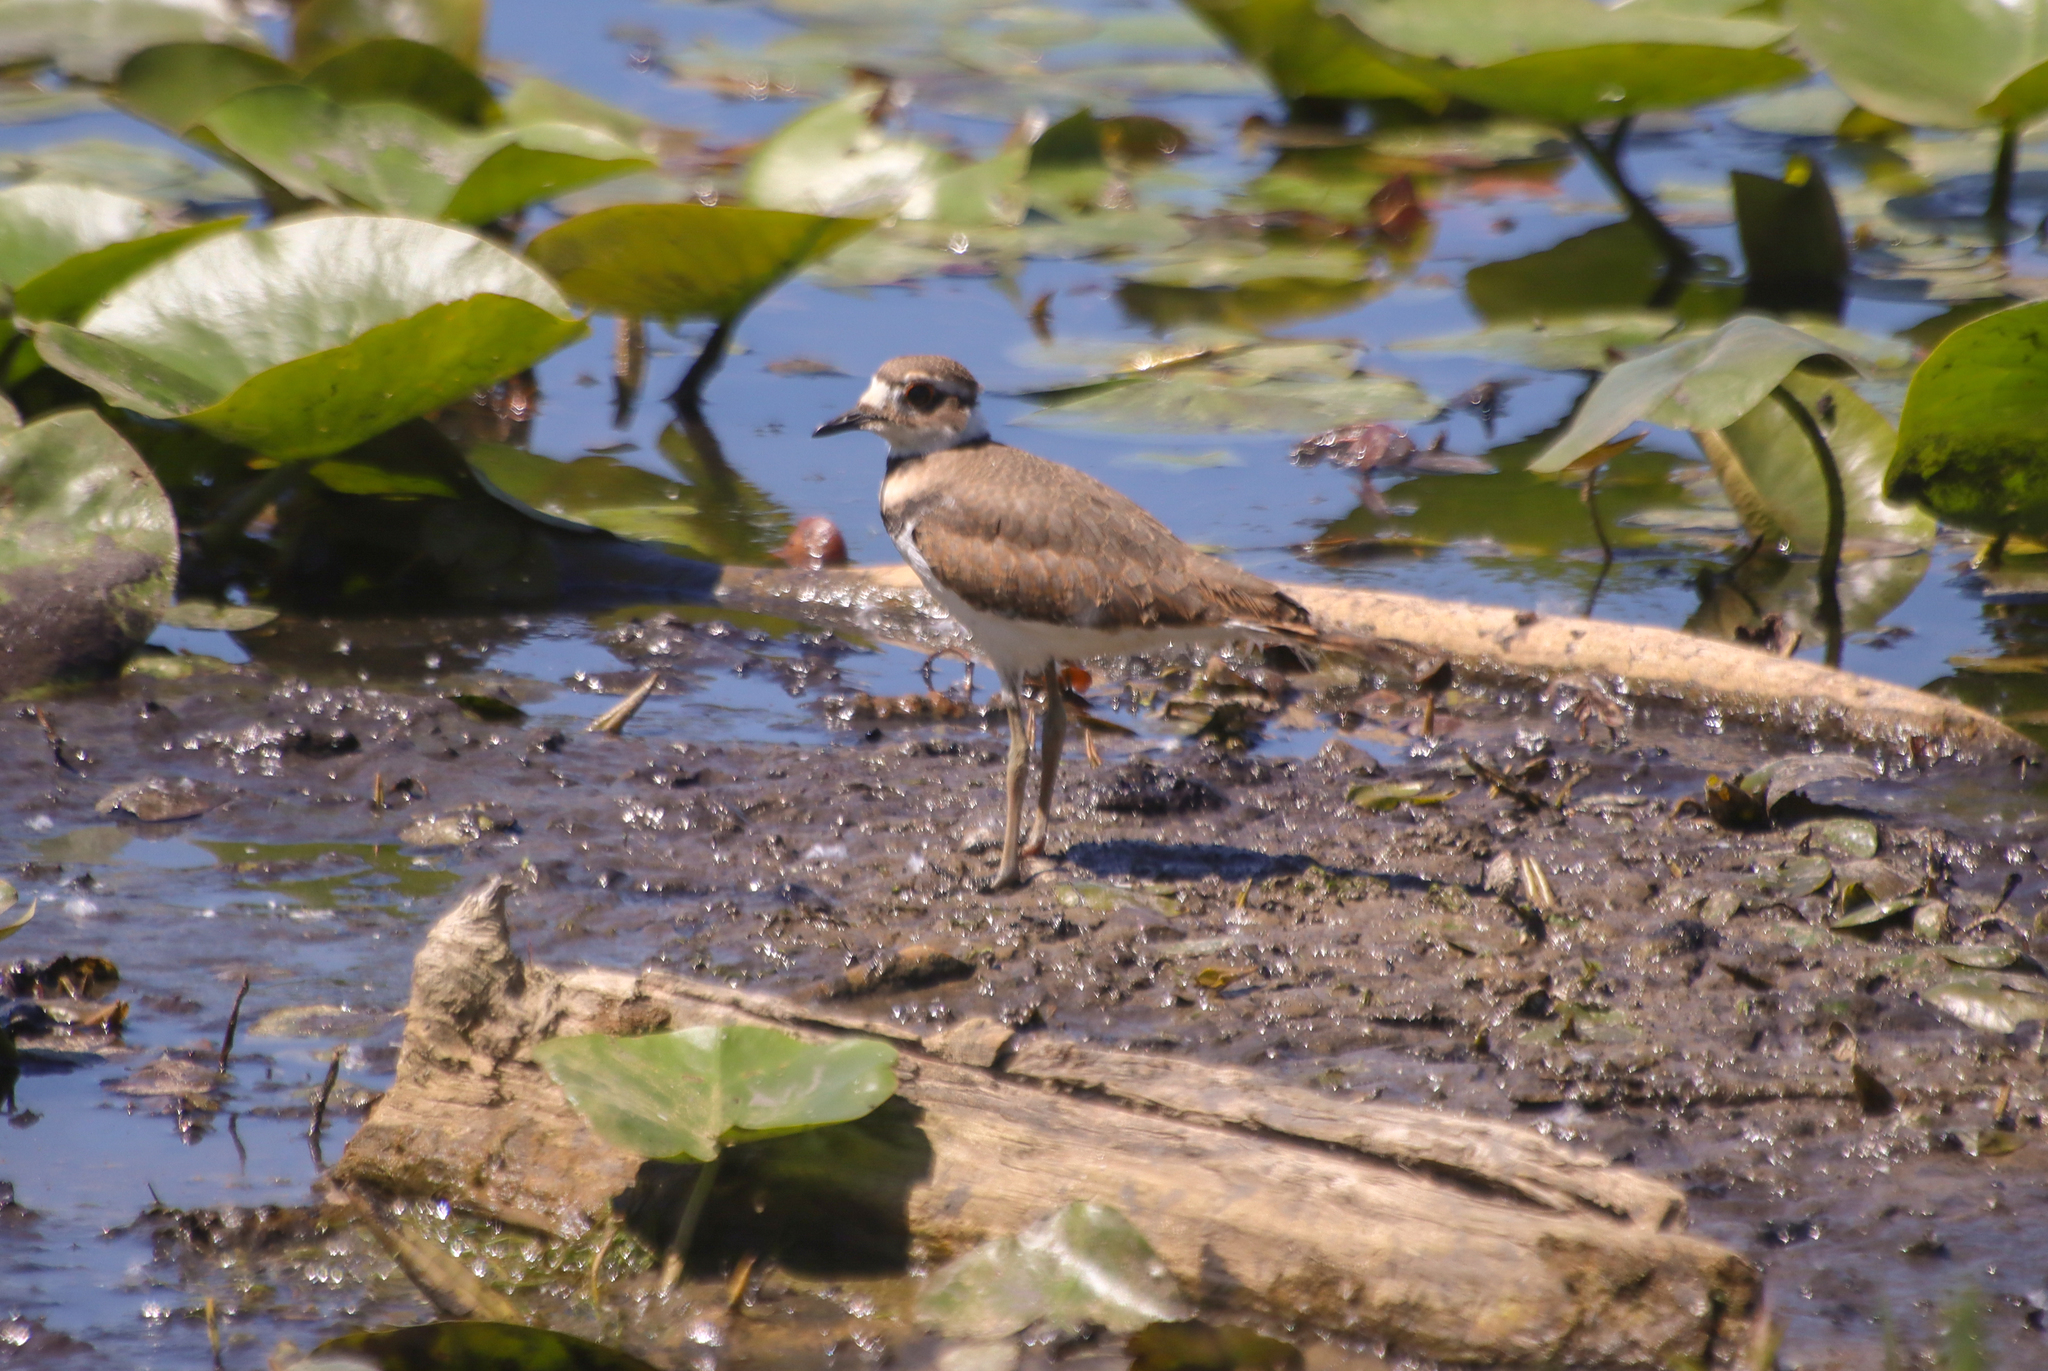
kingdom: Animalia
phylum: Chordata
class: Aves
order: Charadriiformes
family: Charadriidae
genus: Charadrius
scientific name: Charadrius vociferus
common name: Killdeer
